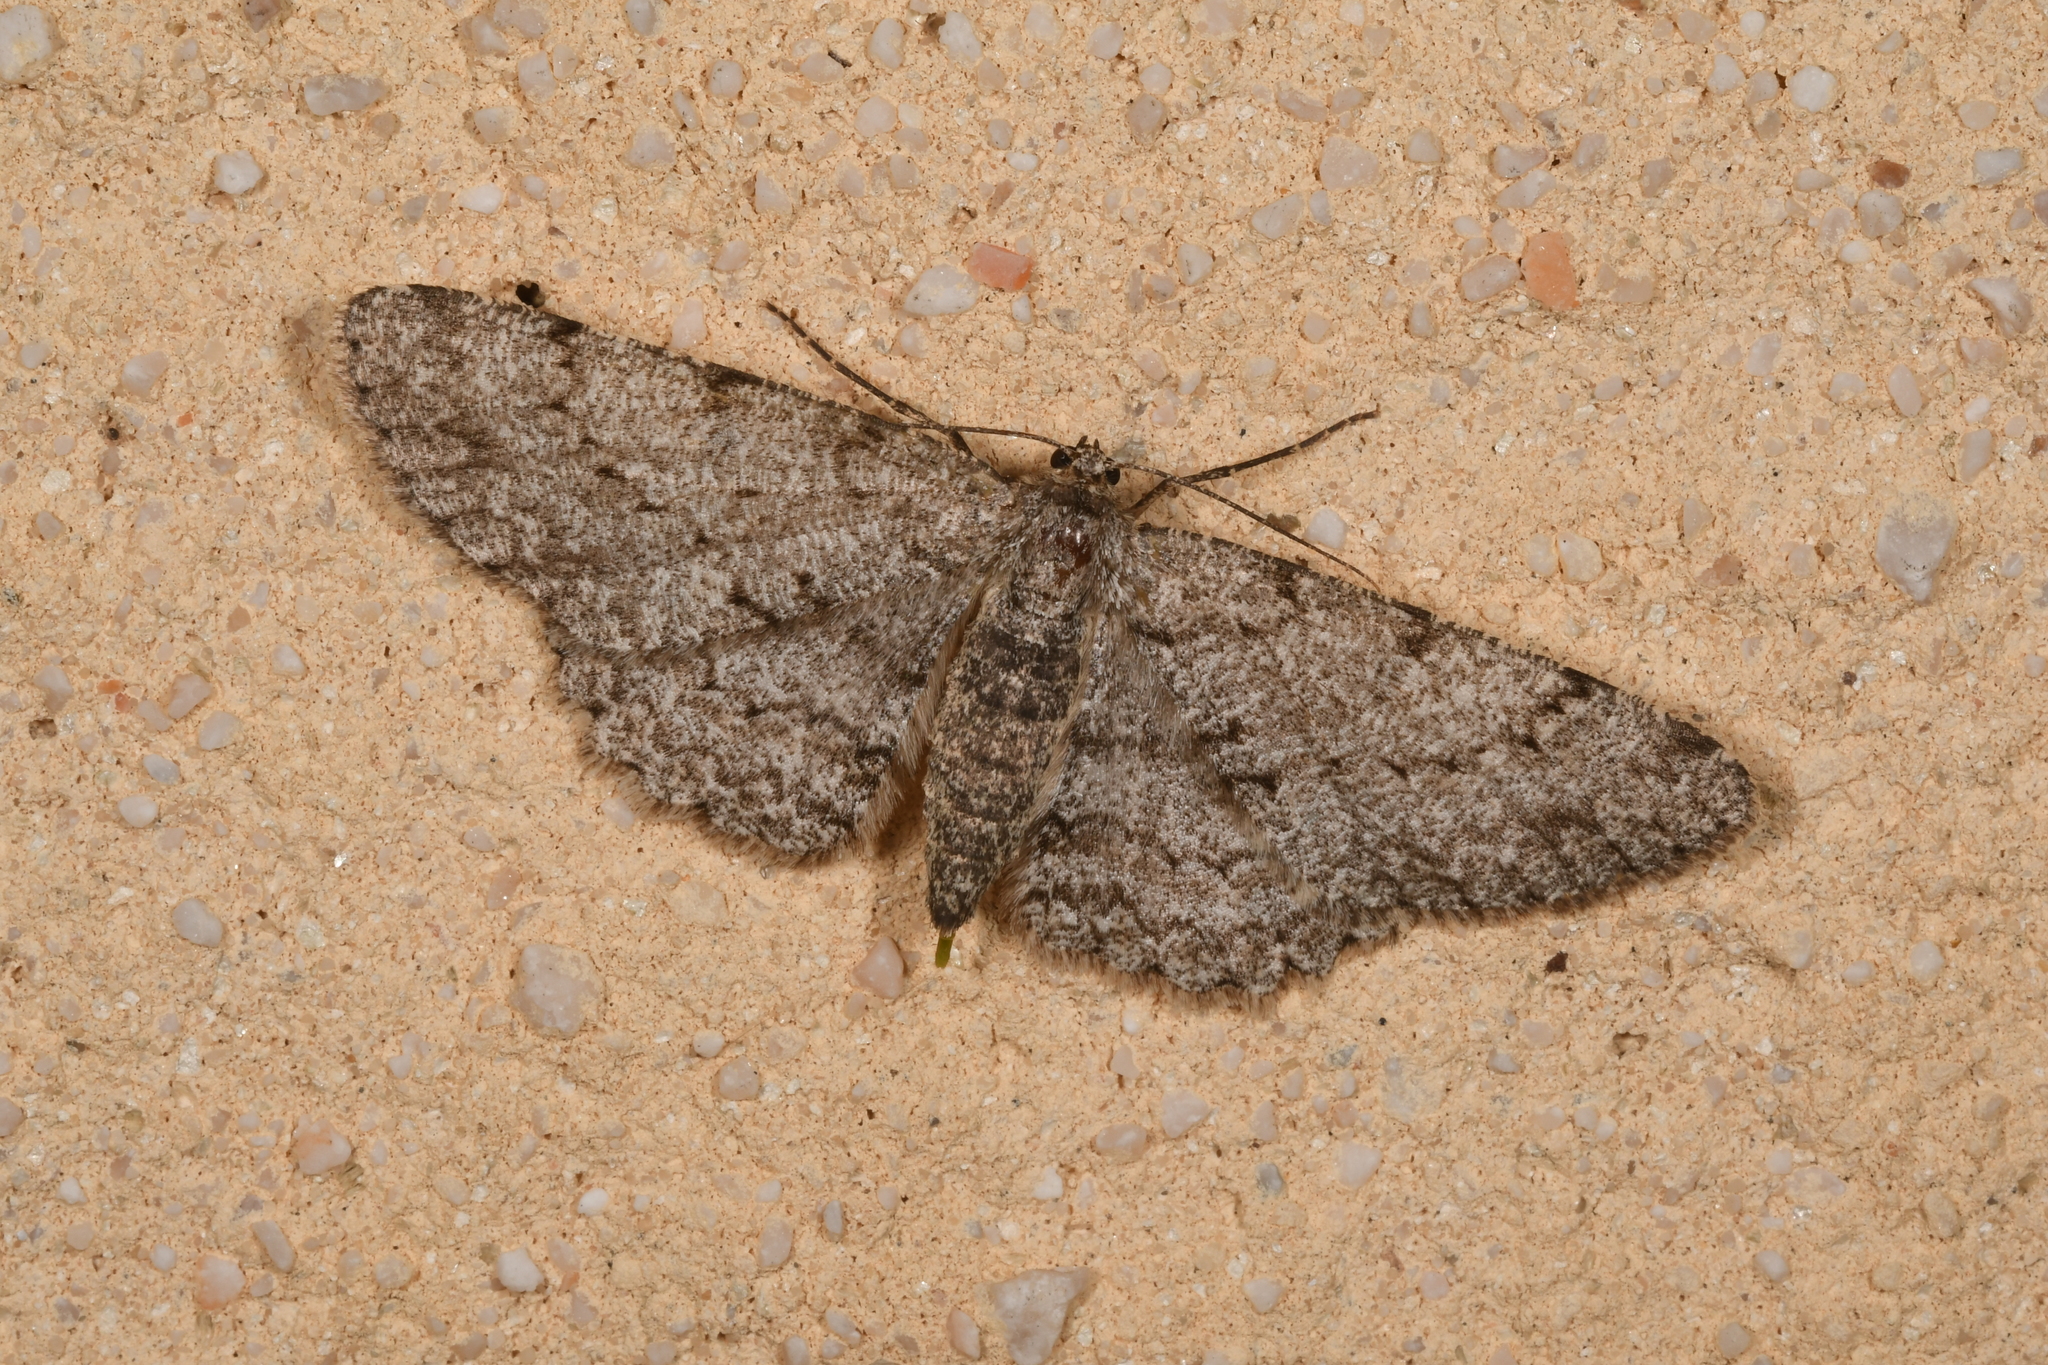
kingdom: Animalia
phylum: Arthropoda
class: Insecta
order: Lepidoptera
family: Geometridae
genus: Hypomecis
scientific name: Hypomecis punctinalis
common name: Pale oak beauty
